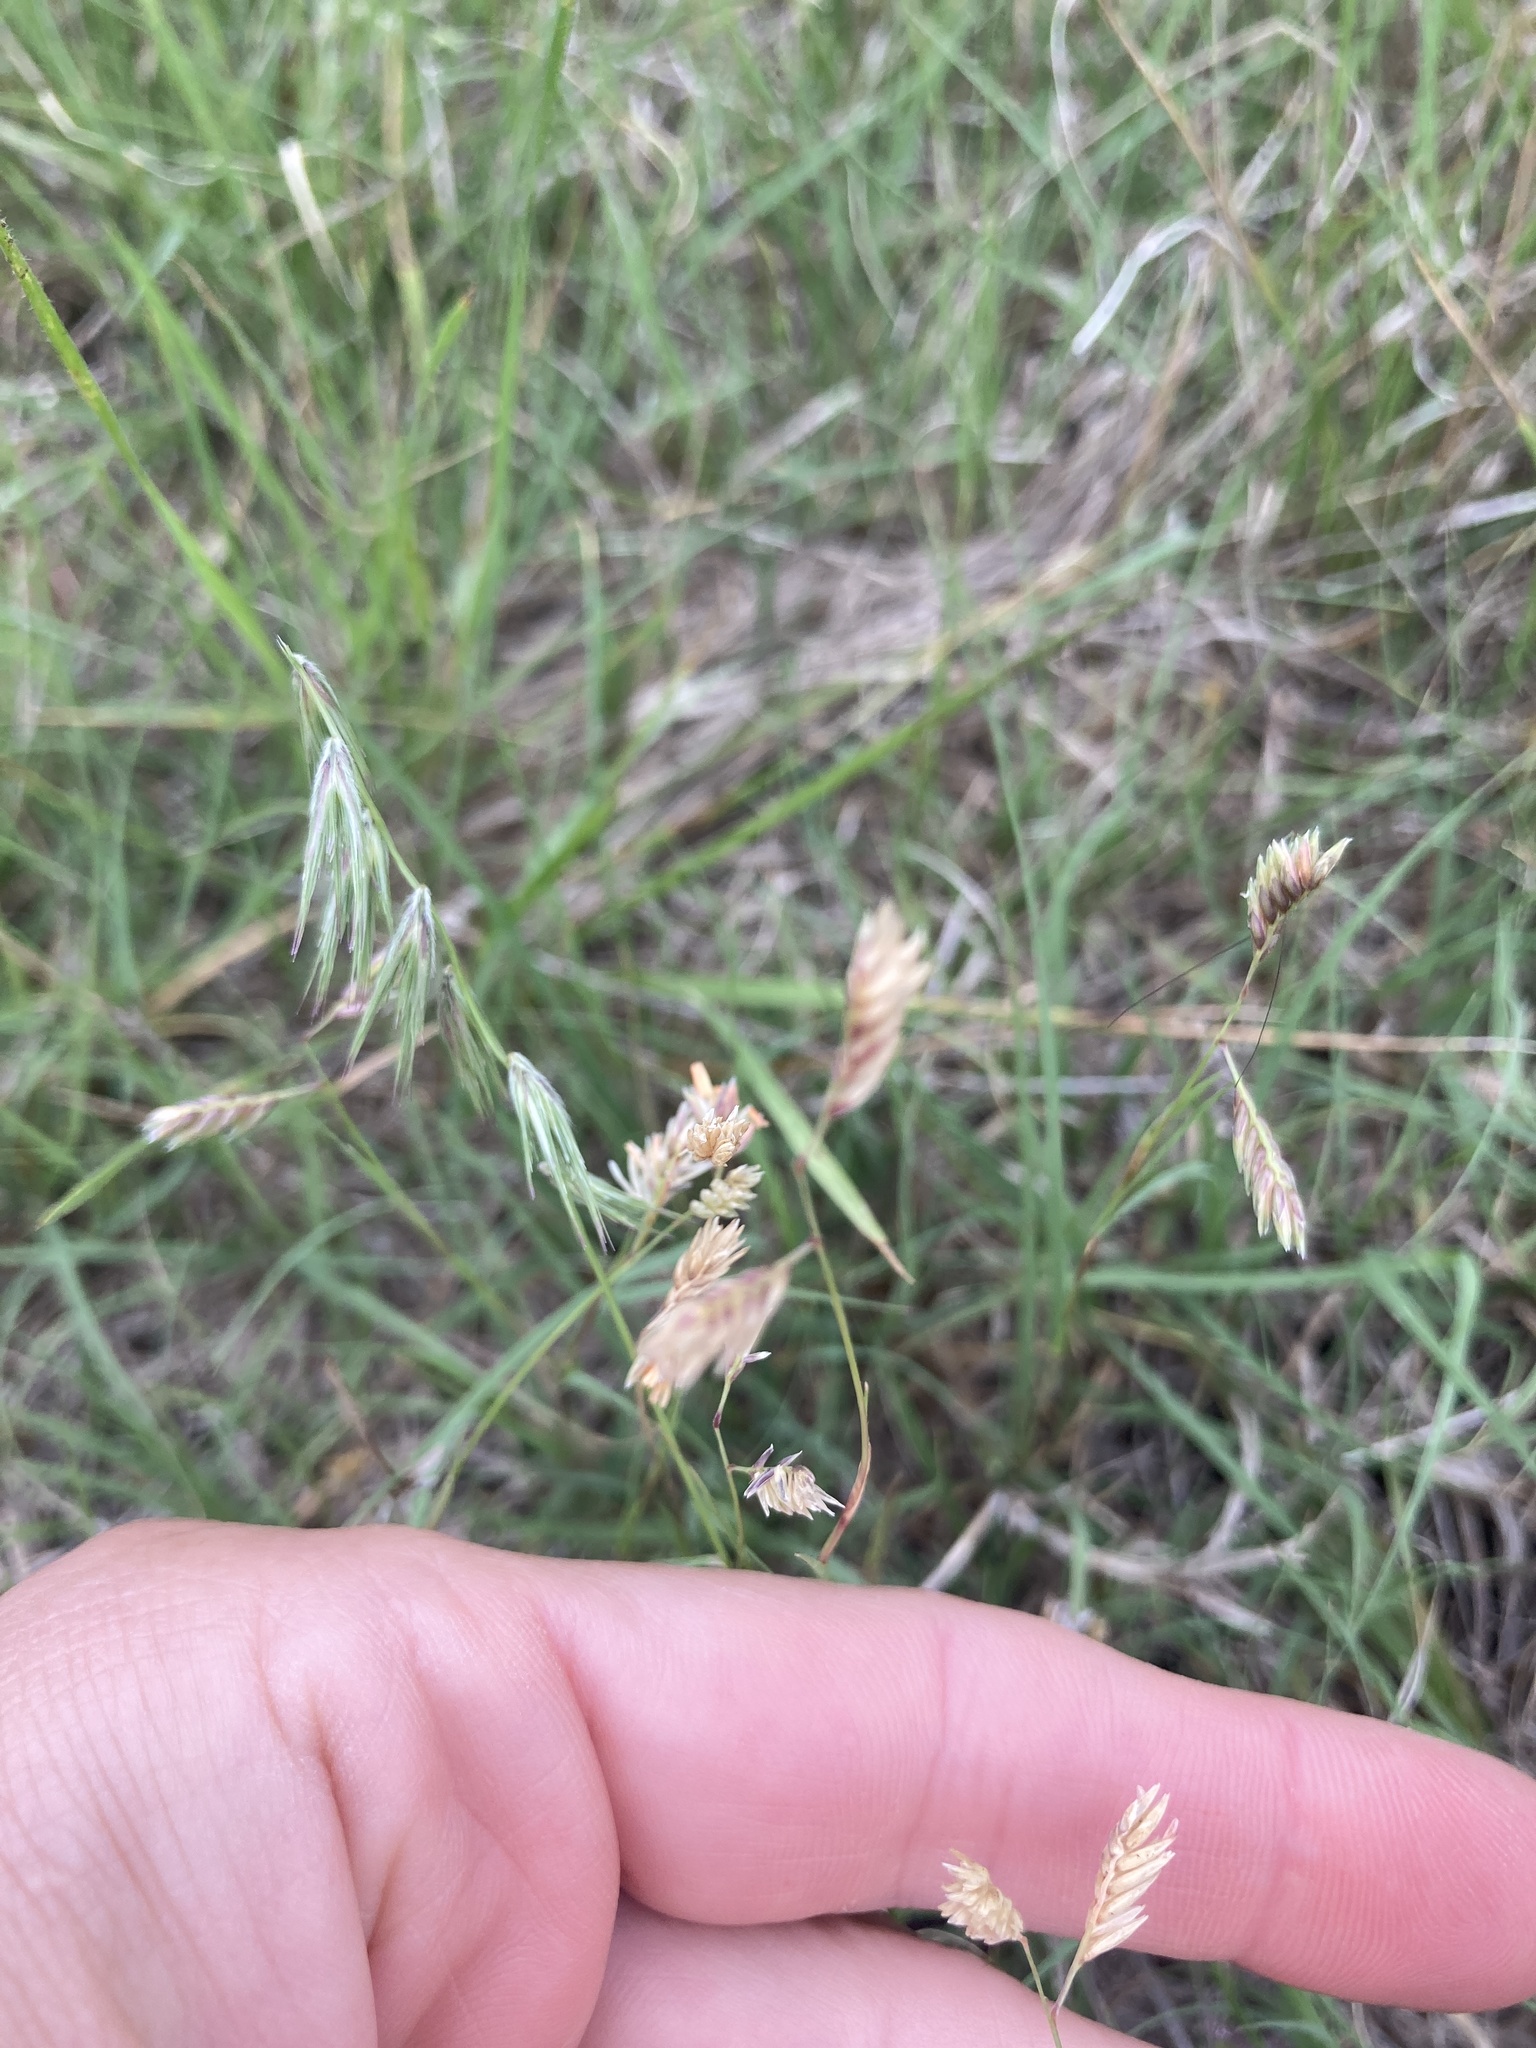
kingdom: Plantae
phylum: Tracheophyta
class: Liliopsida
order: Poales
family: Poaceae
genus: Bouteloua
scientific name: Bouteloua dactyloides
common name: Buffalo grass
